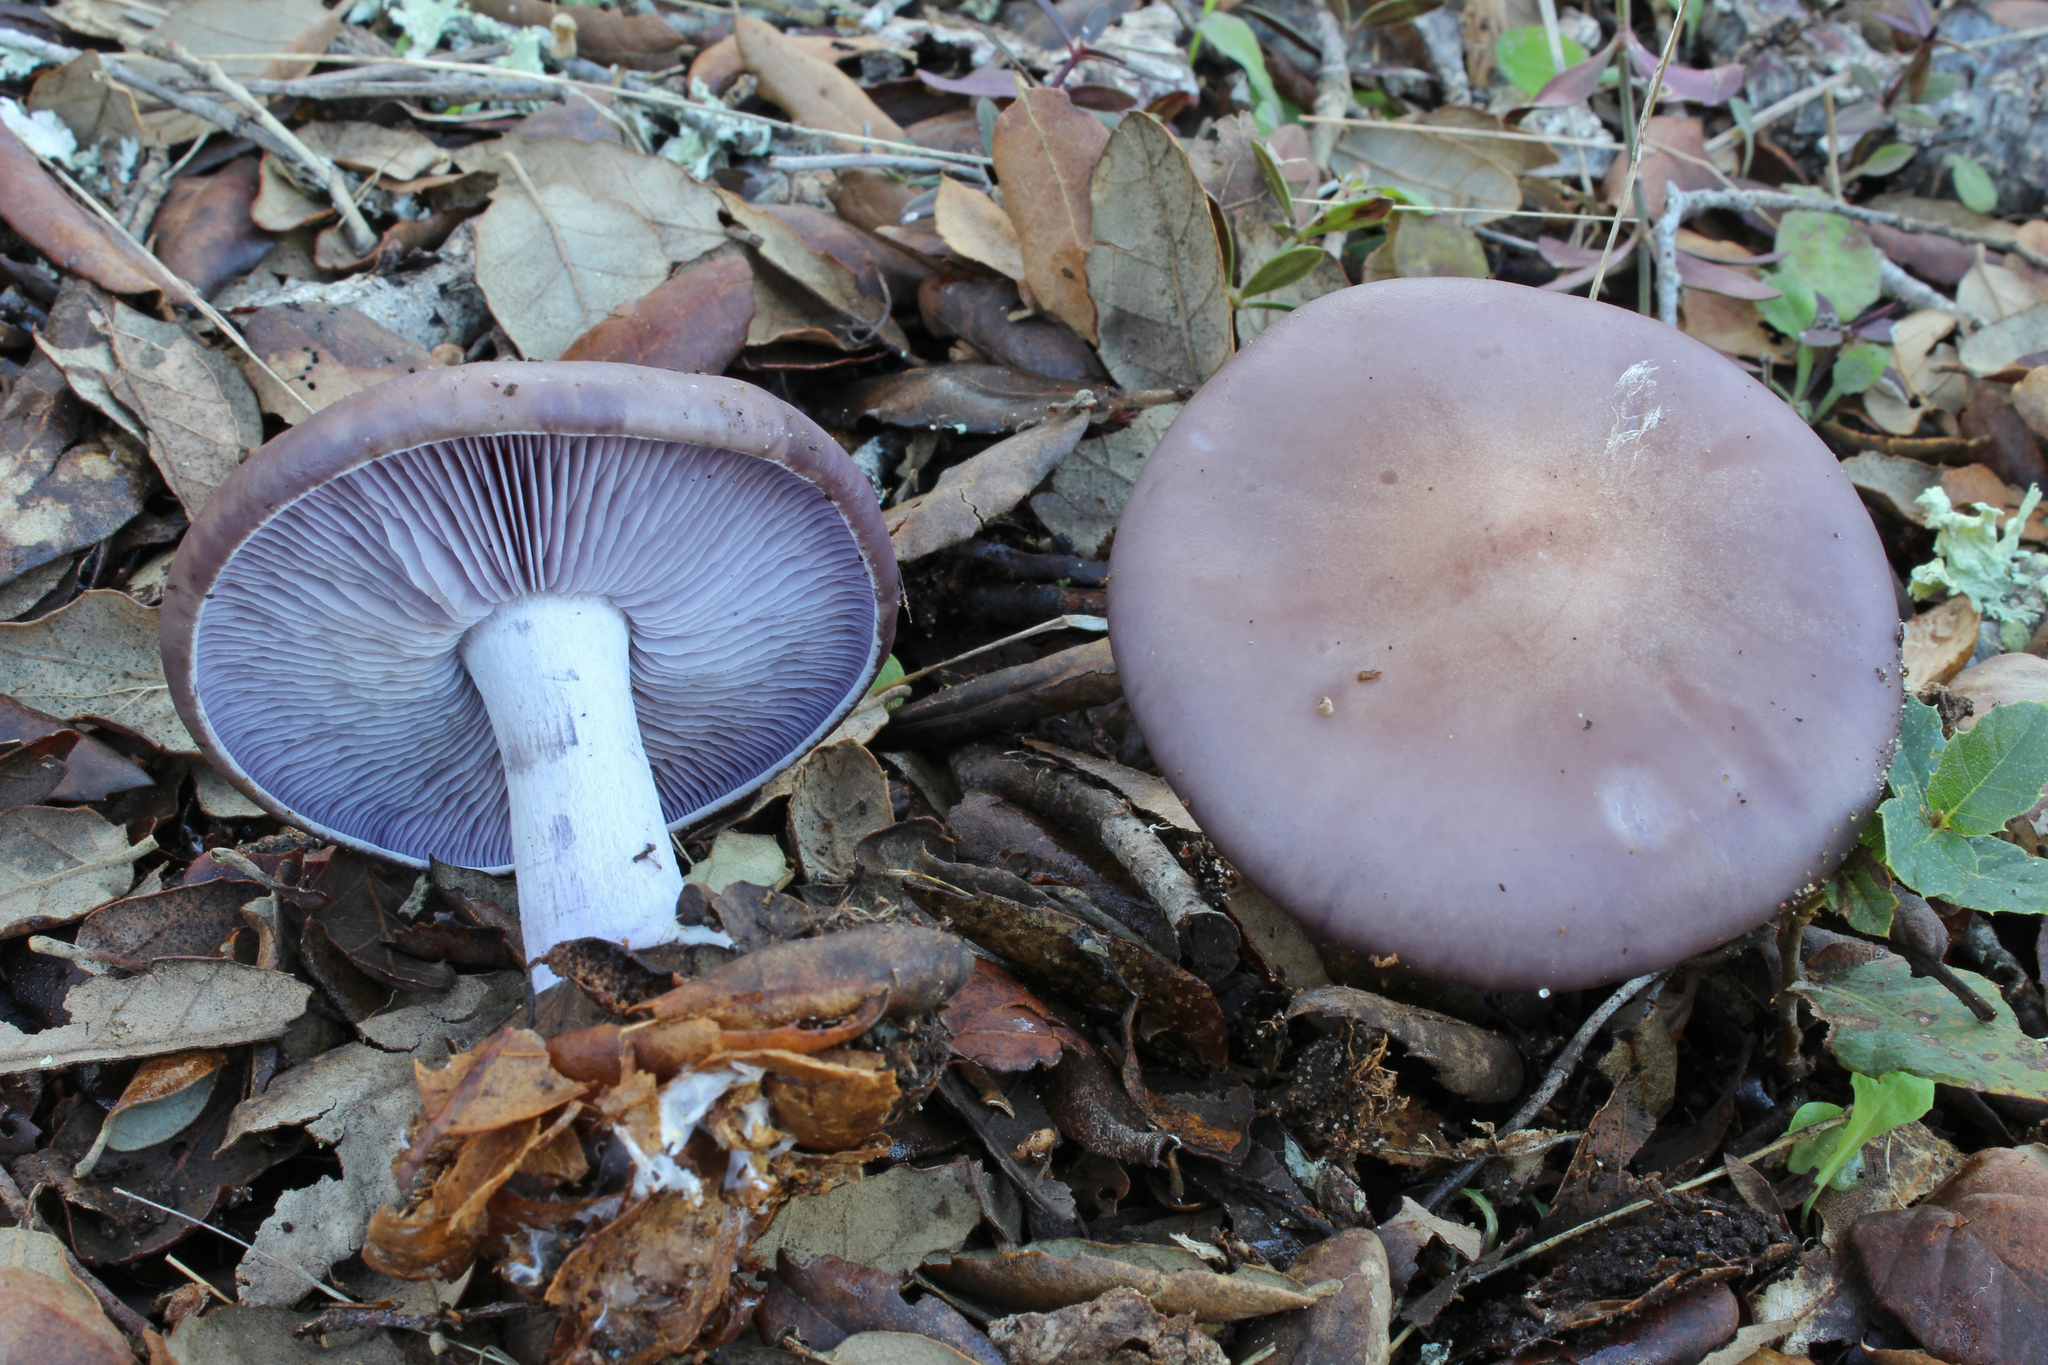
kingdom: Fungi
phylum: Basidiomycota
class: Agaricomycetes
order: Agaricales
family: Tricholomataceae
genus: Collybia
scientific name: Collybia
